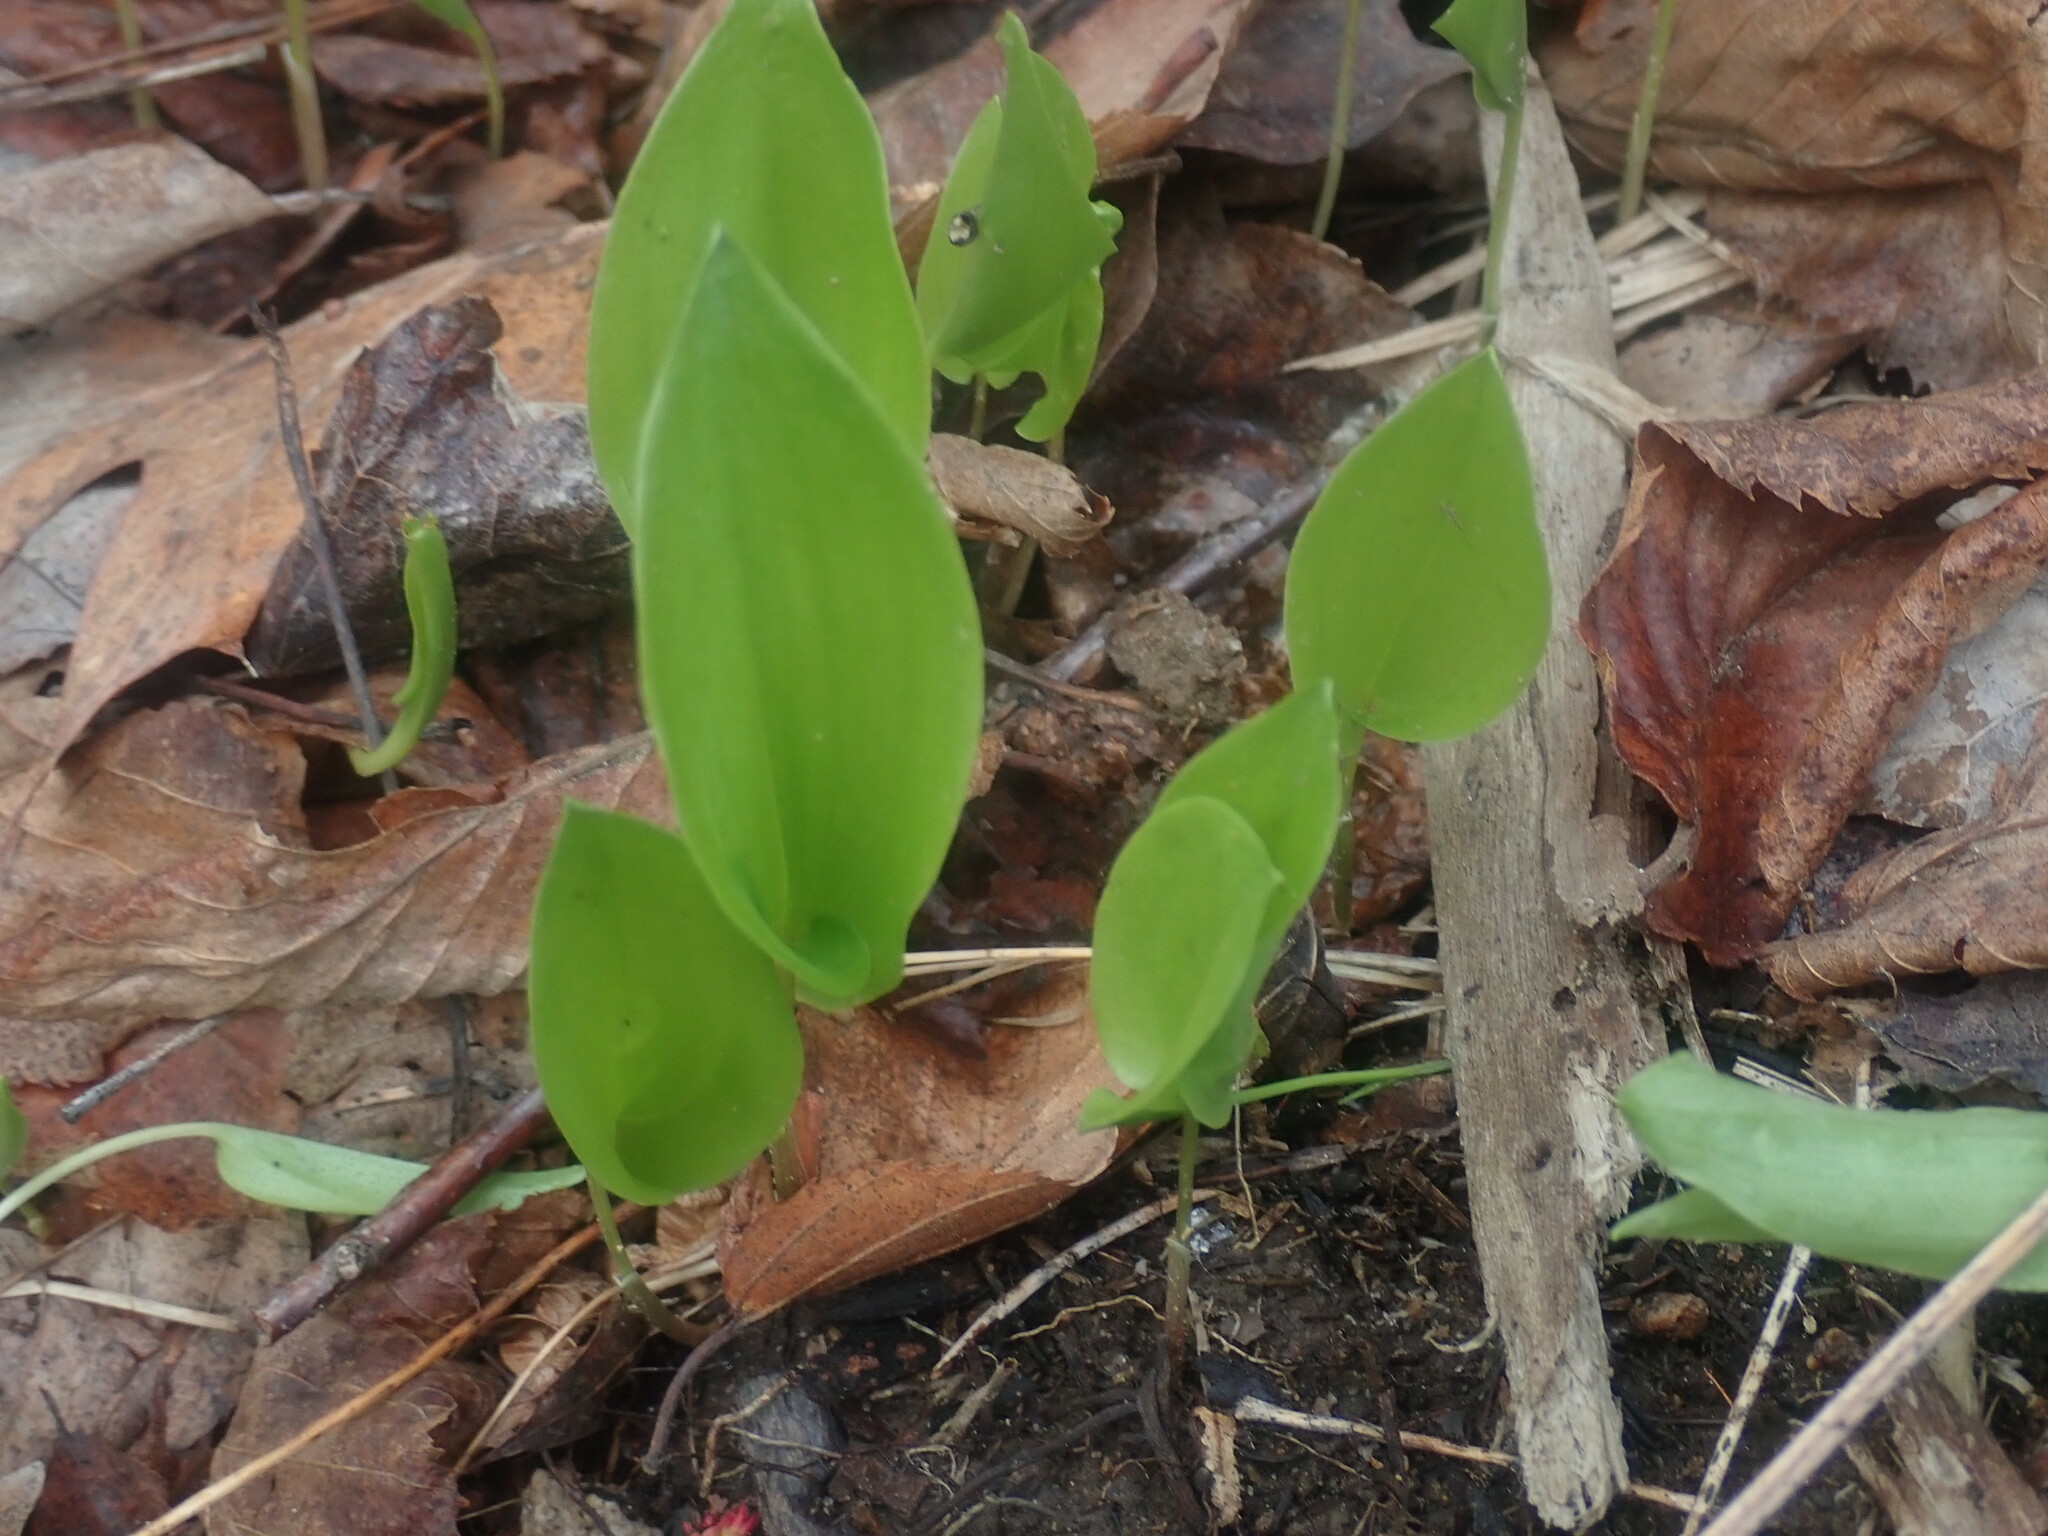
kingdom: Plantae
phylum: Tracheophyta
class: Liliopsida
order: Asparagales
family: Asparagaceae
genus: Maianthemum
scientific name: Maianthemum canadense
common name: False lily-of-the-valley
